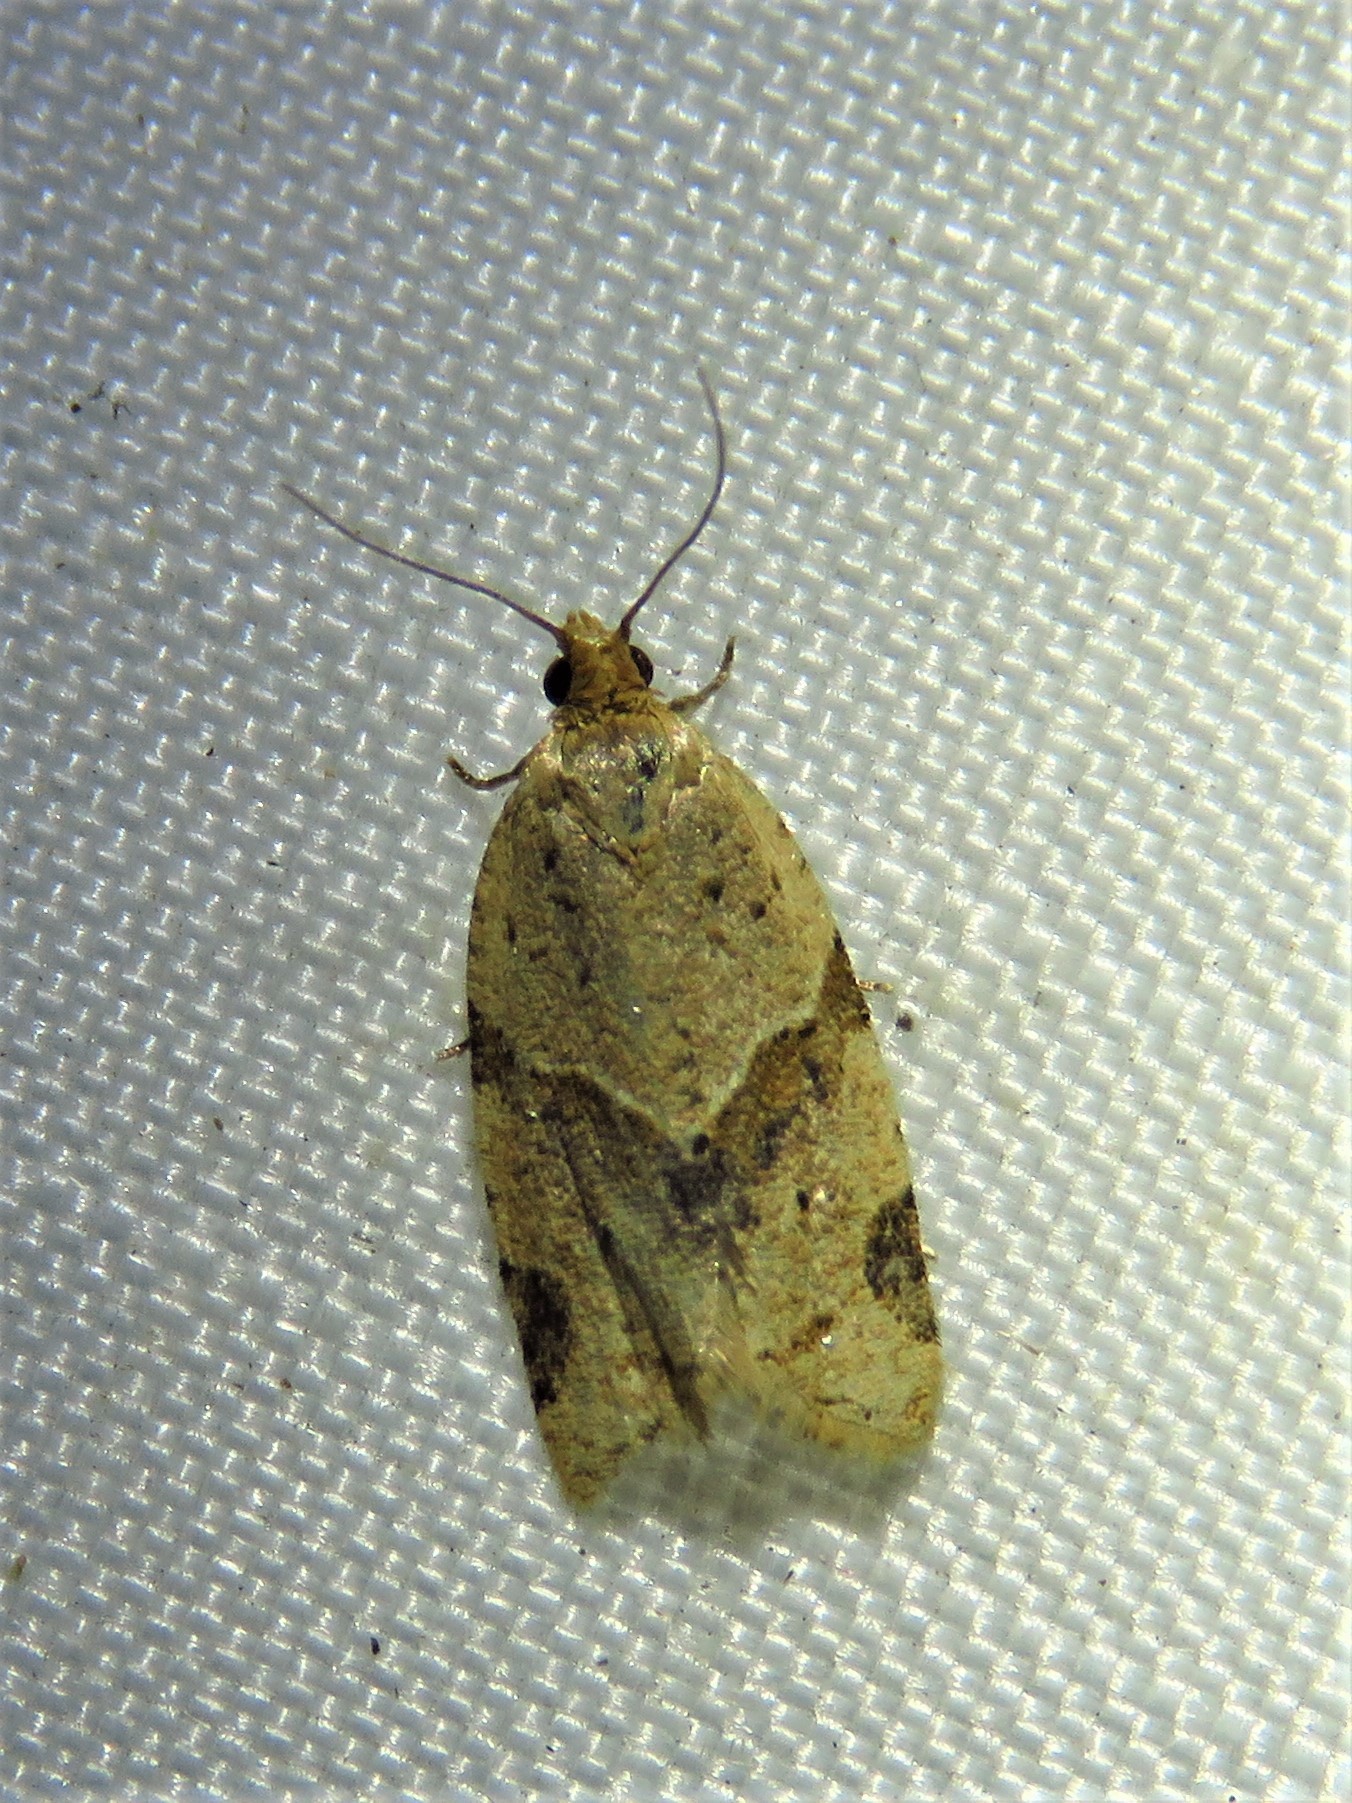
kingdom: Animalia
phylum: Arthropoda
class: Insecta
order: Lepidoptera
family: Tortricidae
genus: Clepsis
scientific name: Clepsis peritana
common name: Garden tortrix
